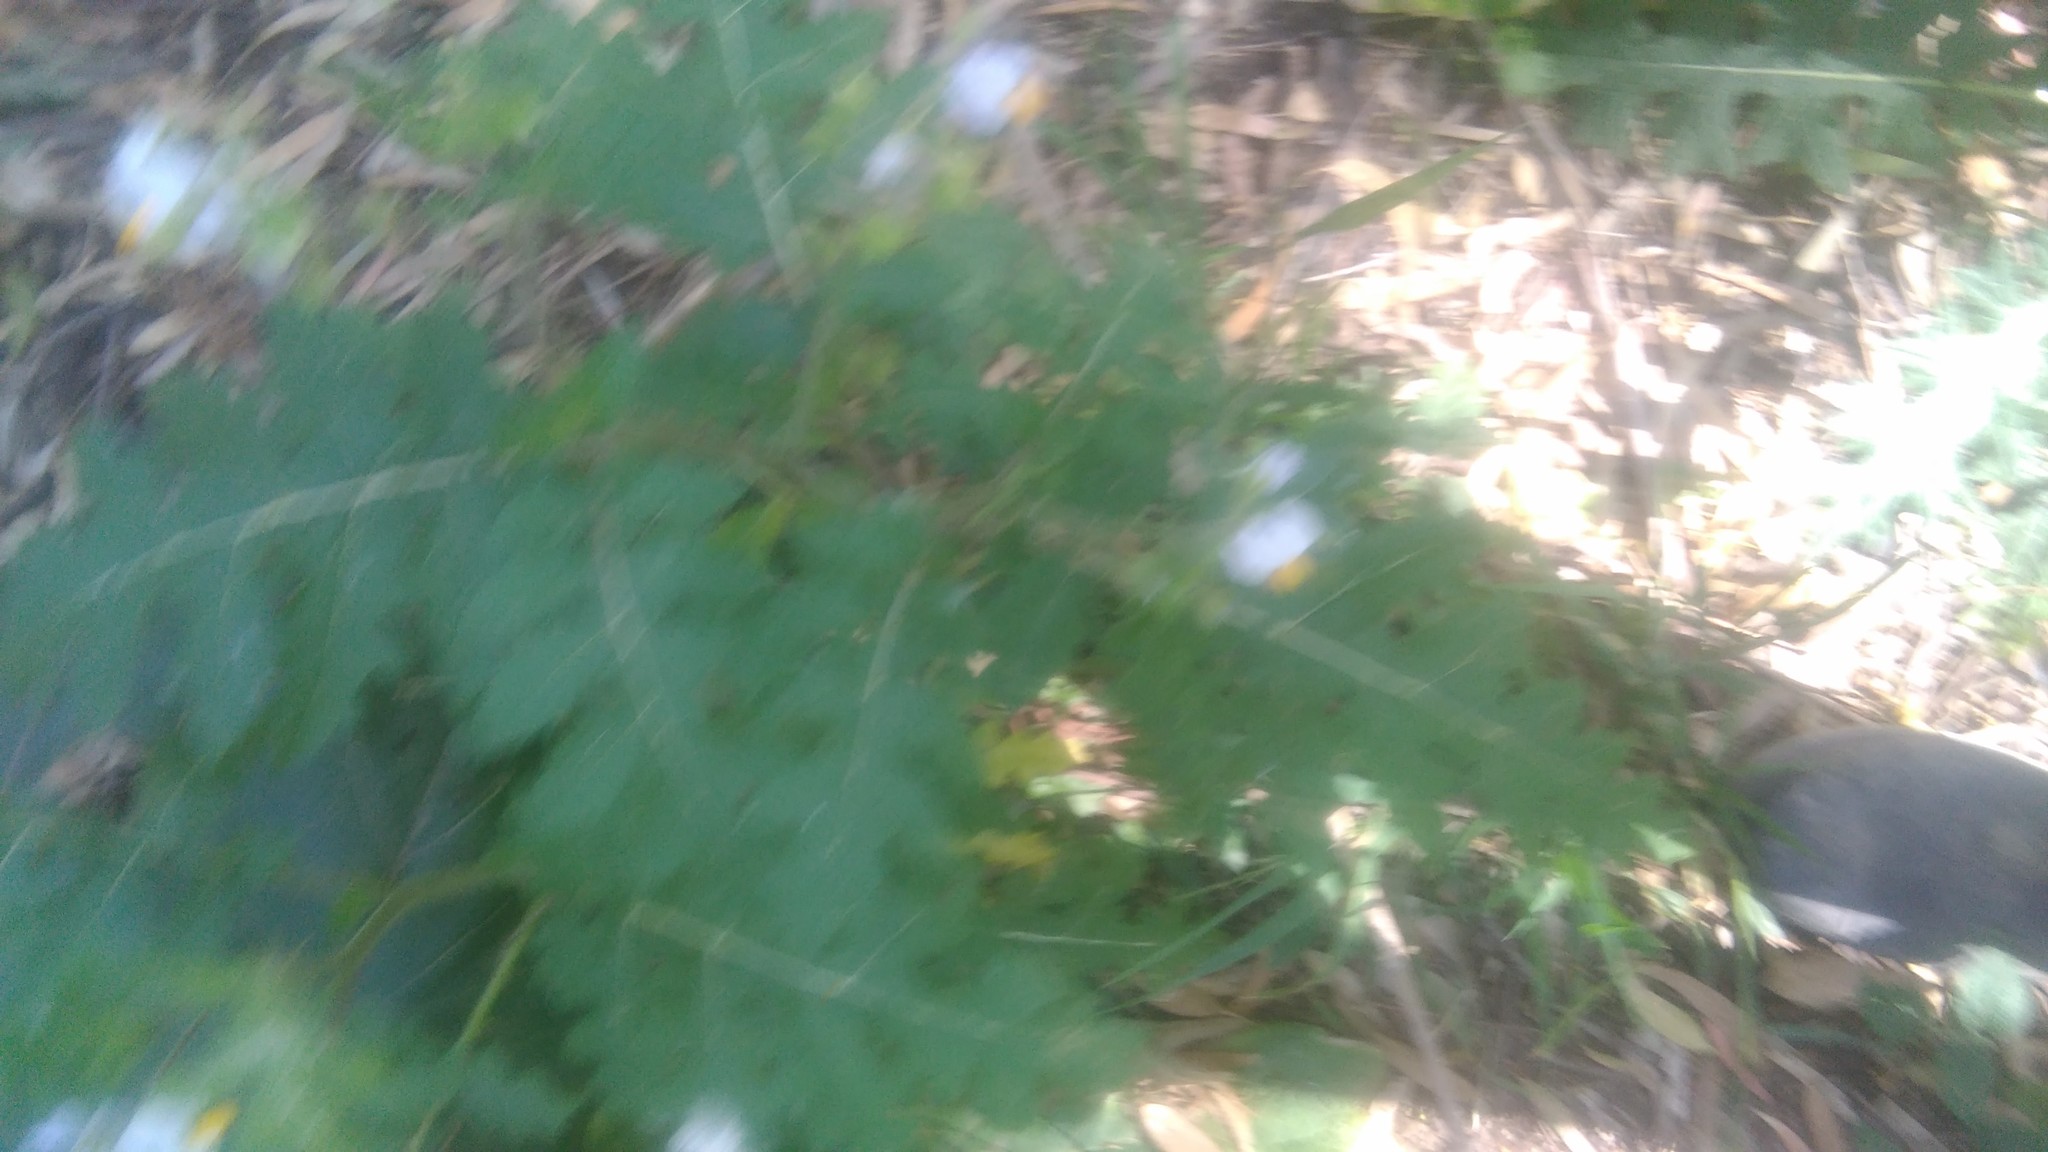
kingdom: Plantae
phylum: Tracheophyta
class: Magnoliopsida
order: Solanales
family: Solanaceae
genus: Solanum
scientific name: Solanum sisymbriifolium
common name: Red buffalo-bur
